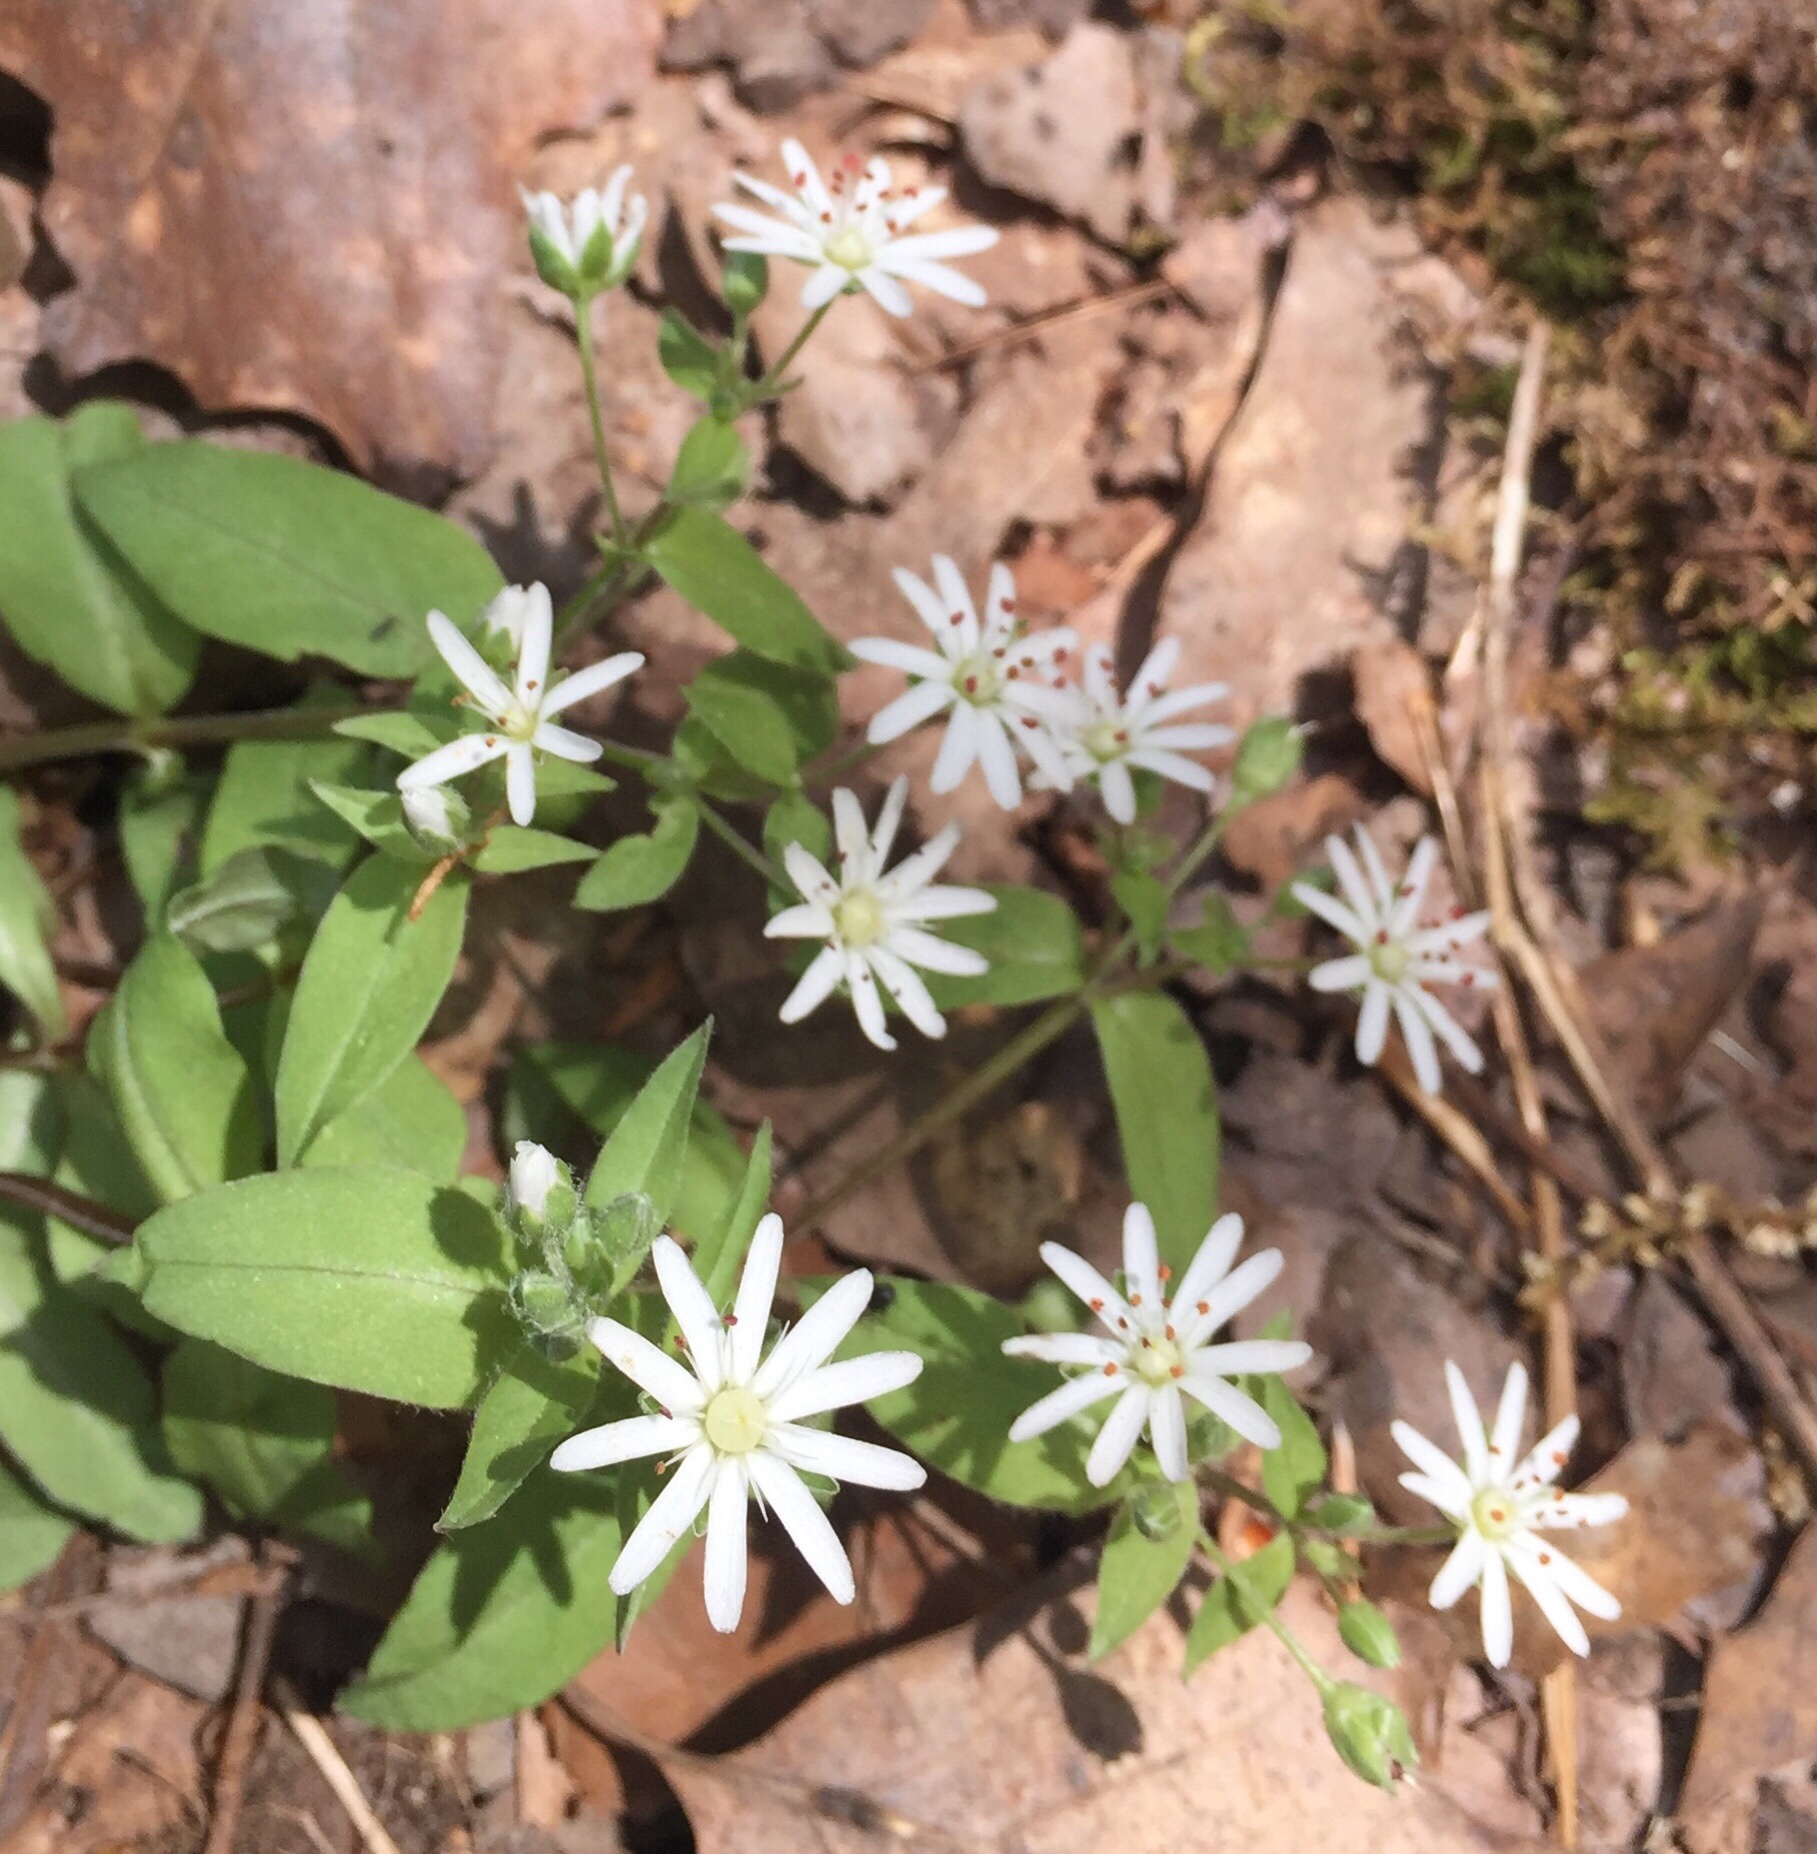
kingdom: Plantae
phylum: Tracheophyta
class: Magnoliopsida
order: Caryophyllales
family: Caryophyllaceae
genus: Stellaria
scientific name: Stellaria pubera
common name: Star chickweed
